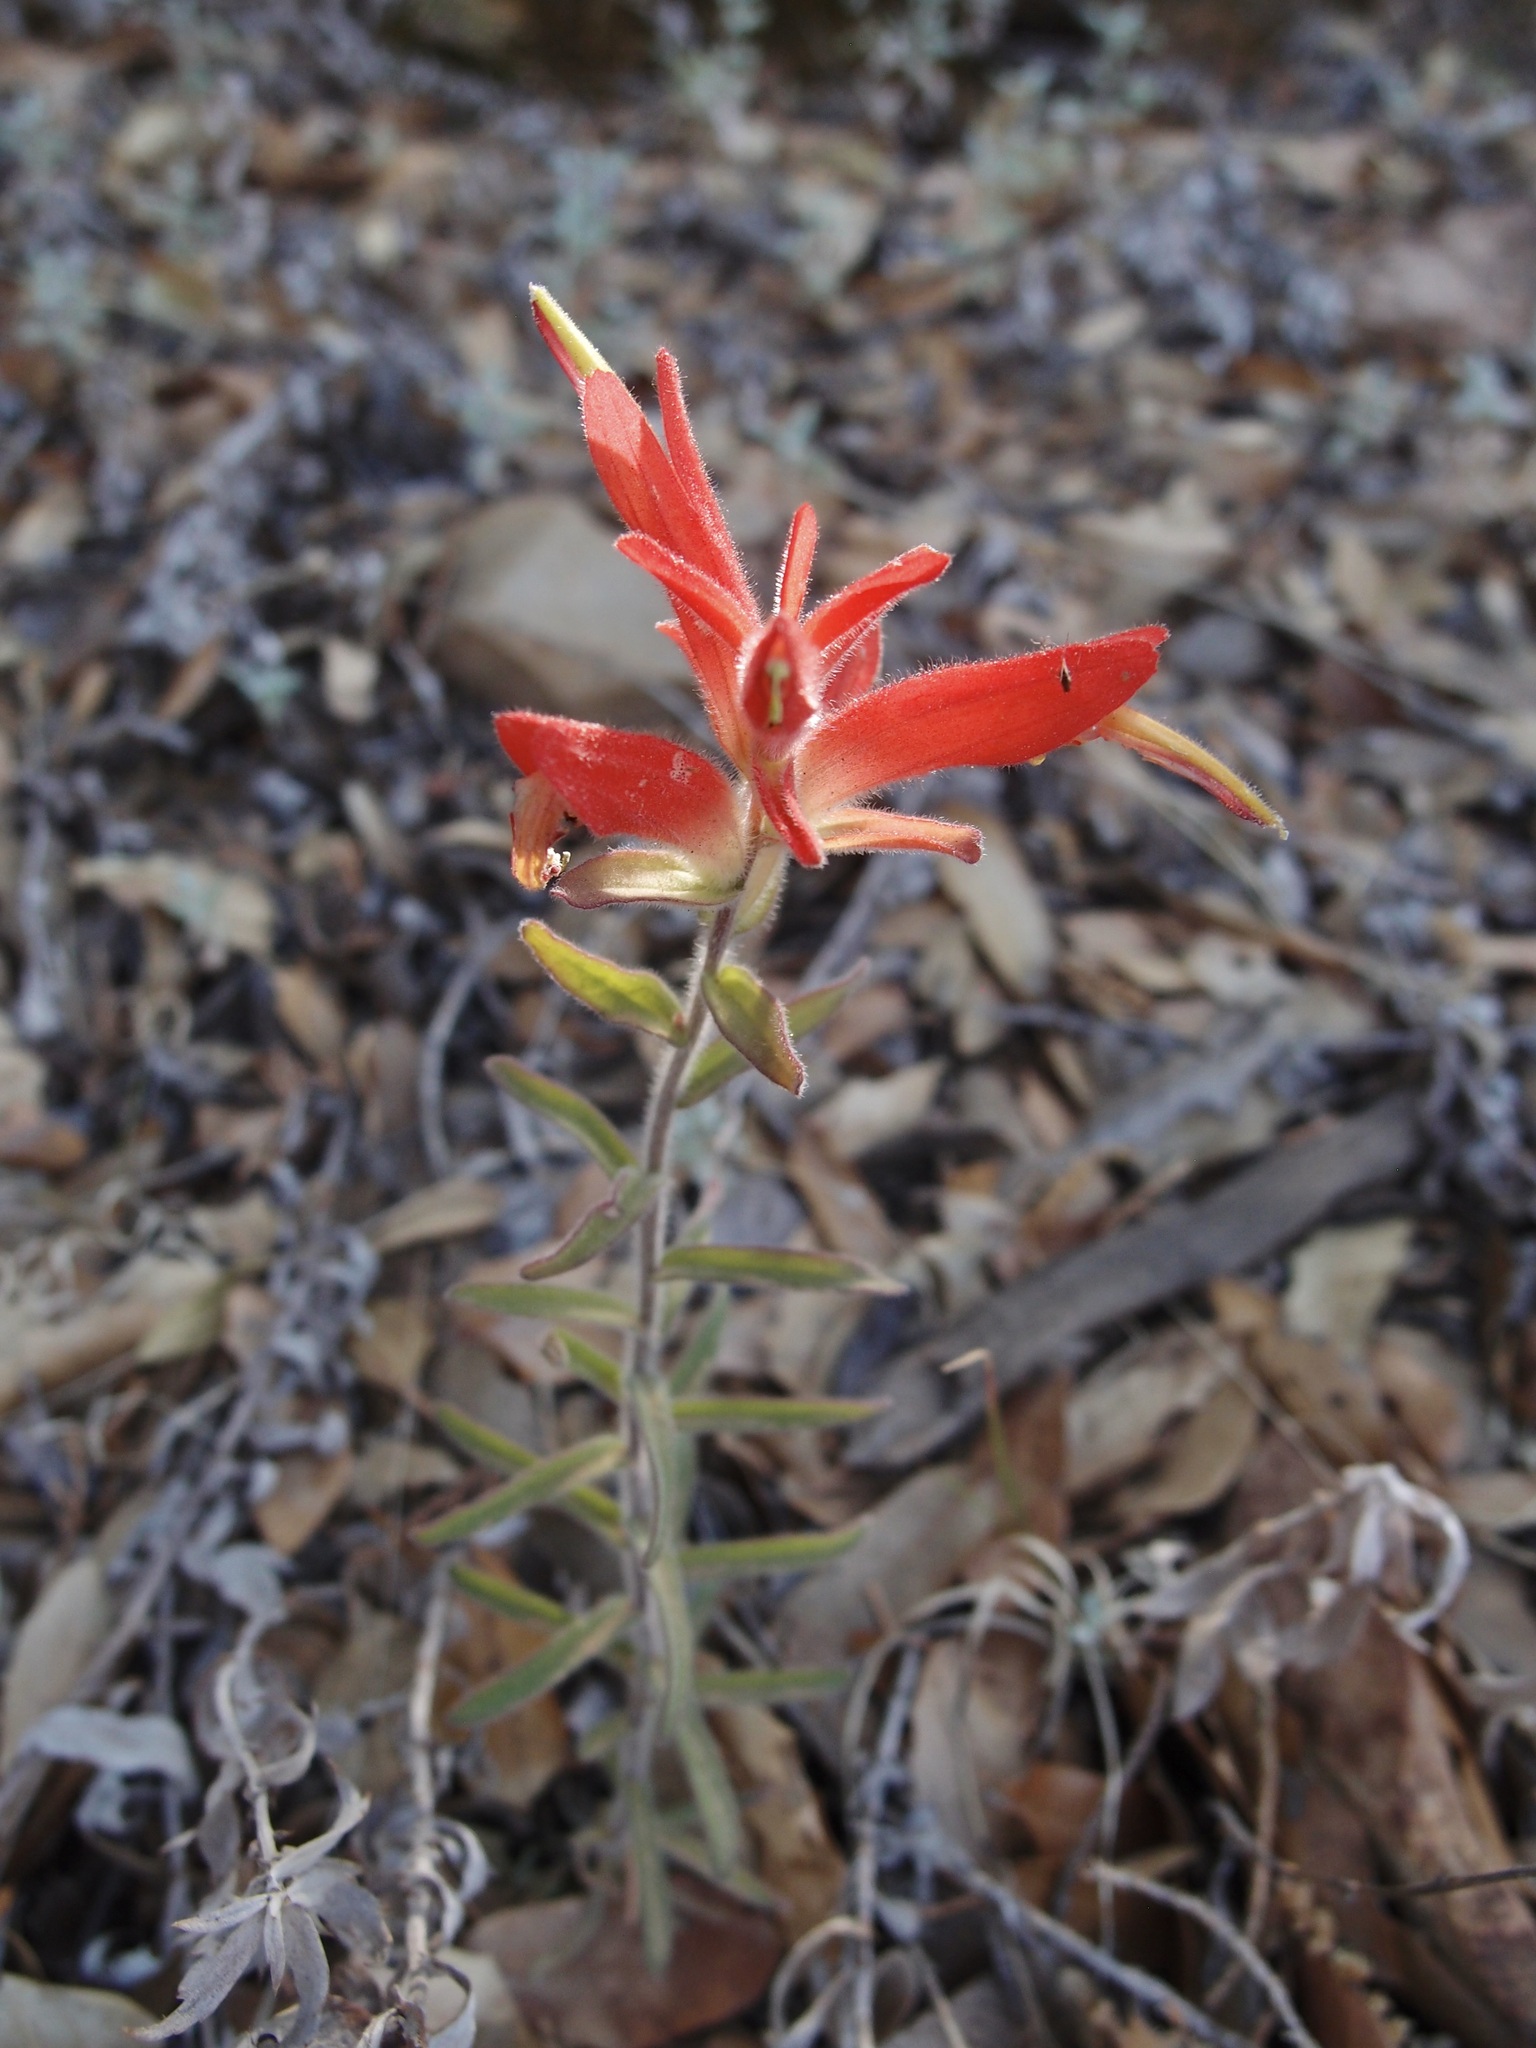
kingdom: Plantae
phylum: Tracheophyta
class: Magnoliopsida
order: Lamiales
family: Orobanchaceae
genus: Castilleja
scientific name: Castilleja tenuiflora
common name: Santa catalina indian paintbrush
